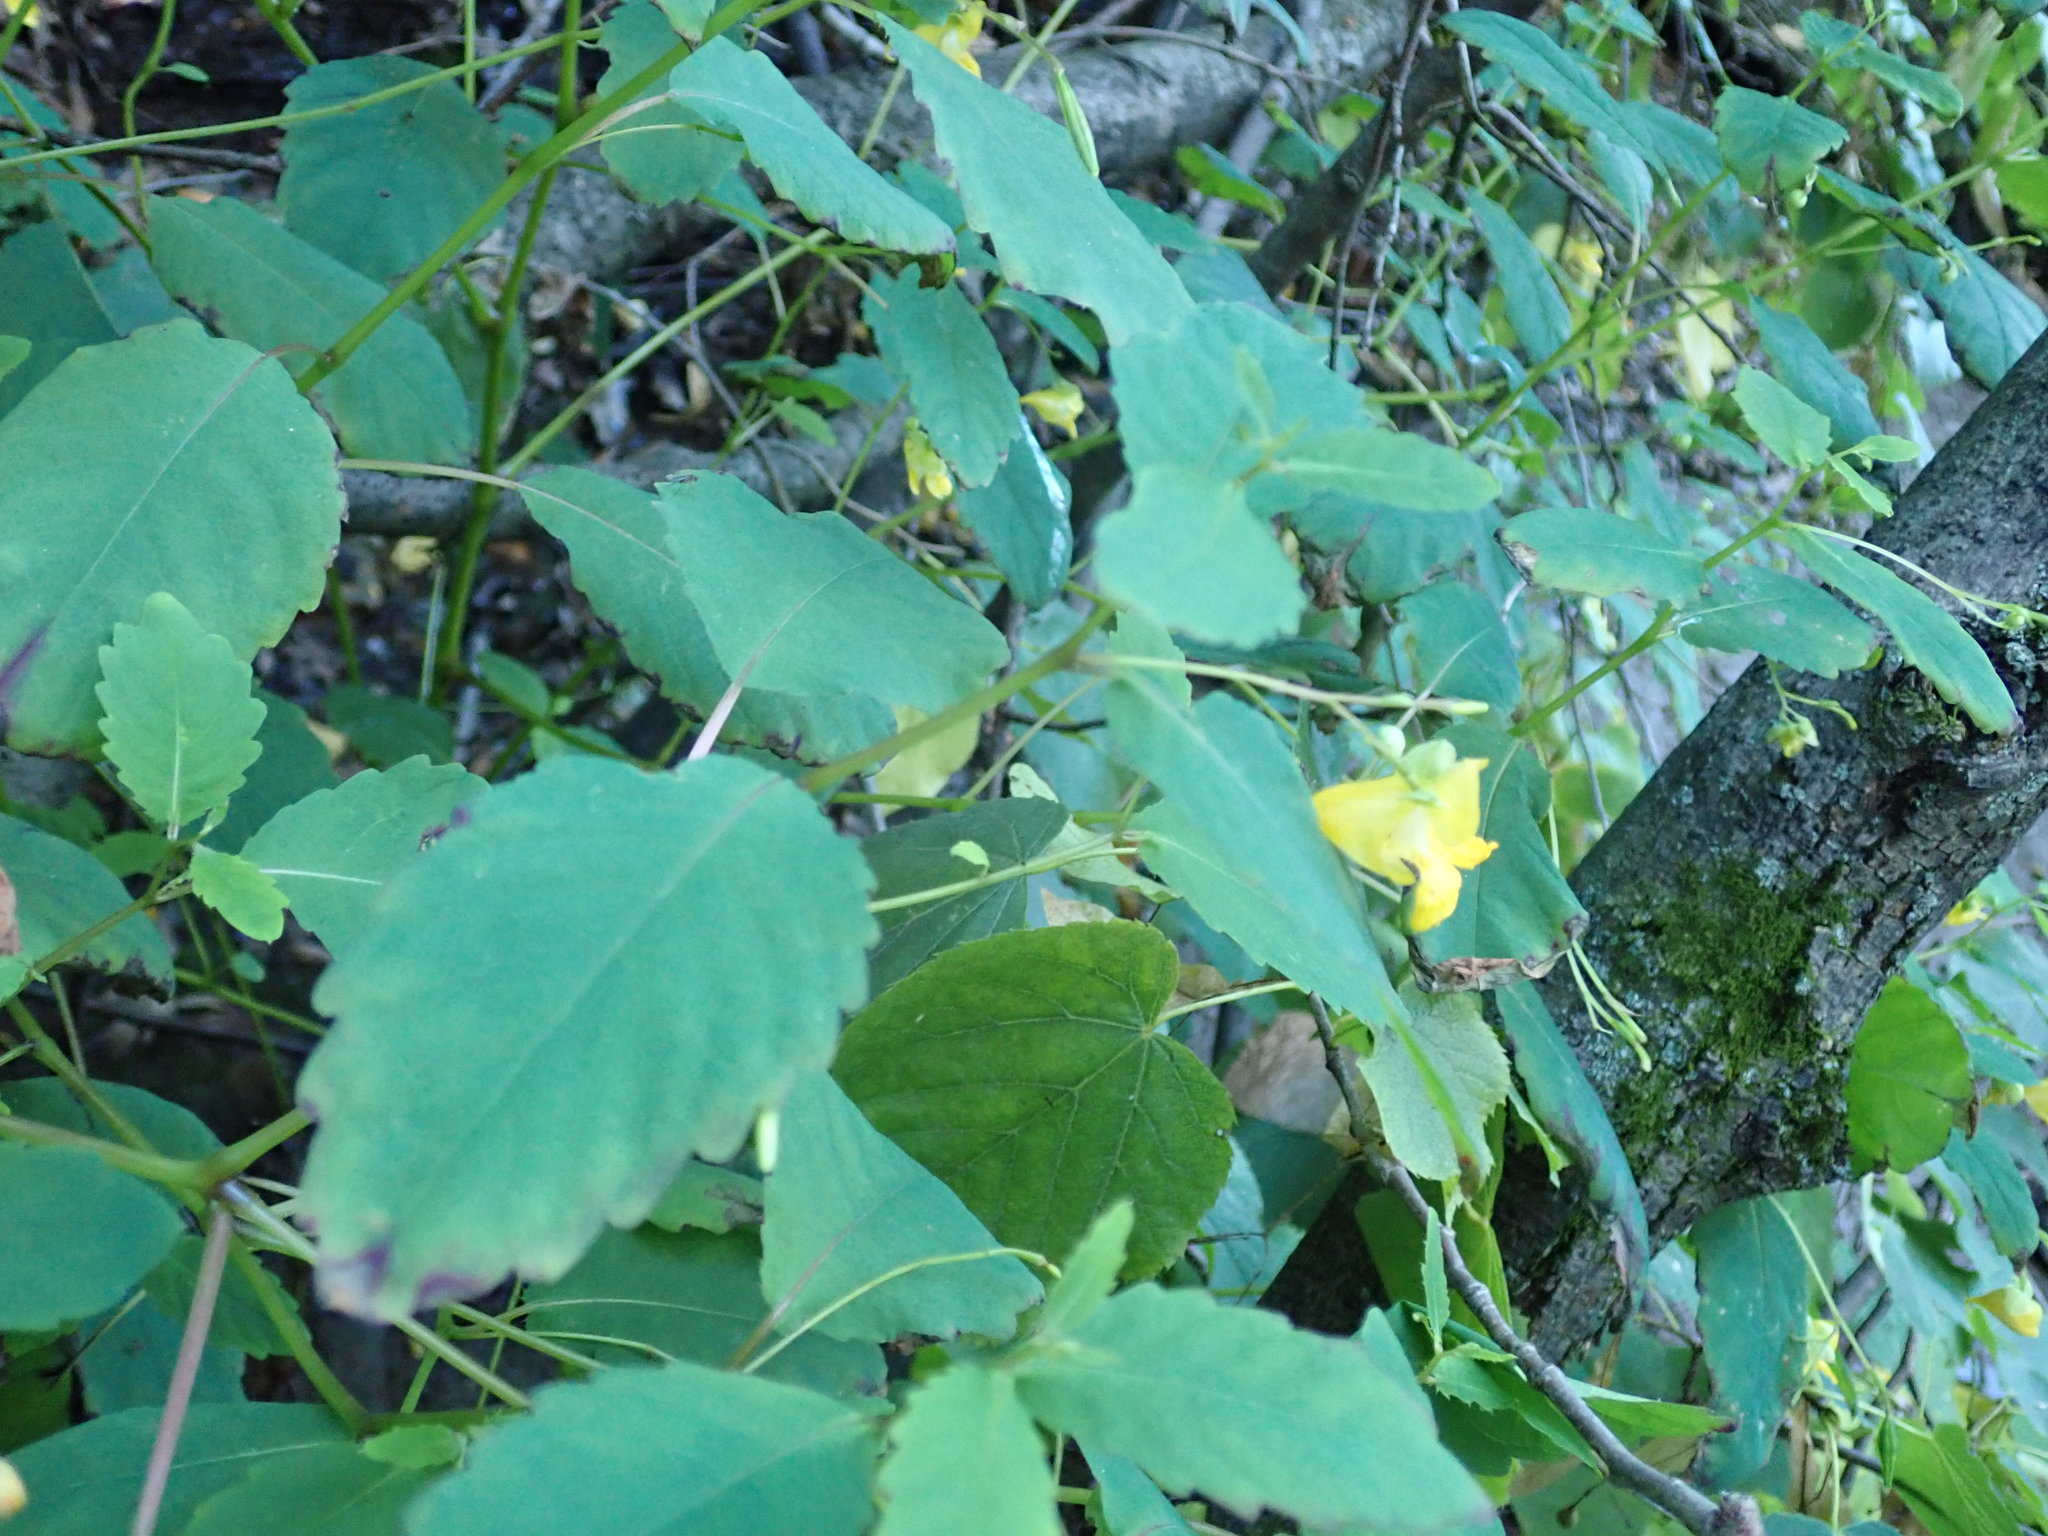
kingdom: Plantae
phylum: Tracheophyta
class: Magnoliopsida
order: Ericales
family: Balsaminaceae
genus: Impatiens
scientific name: Impatiens pallida
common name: Pale snapweed
